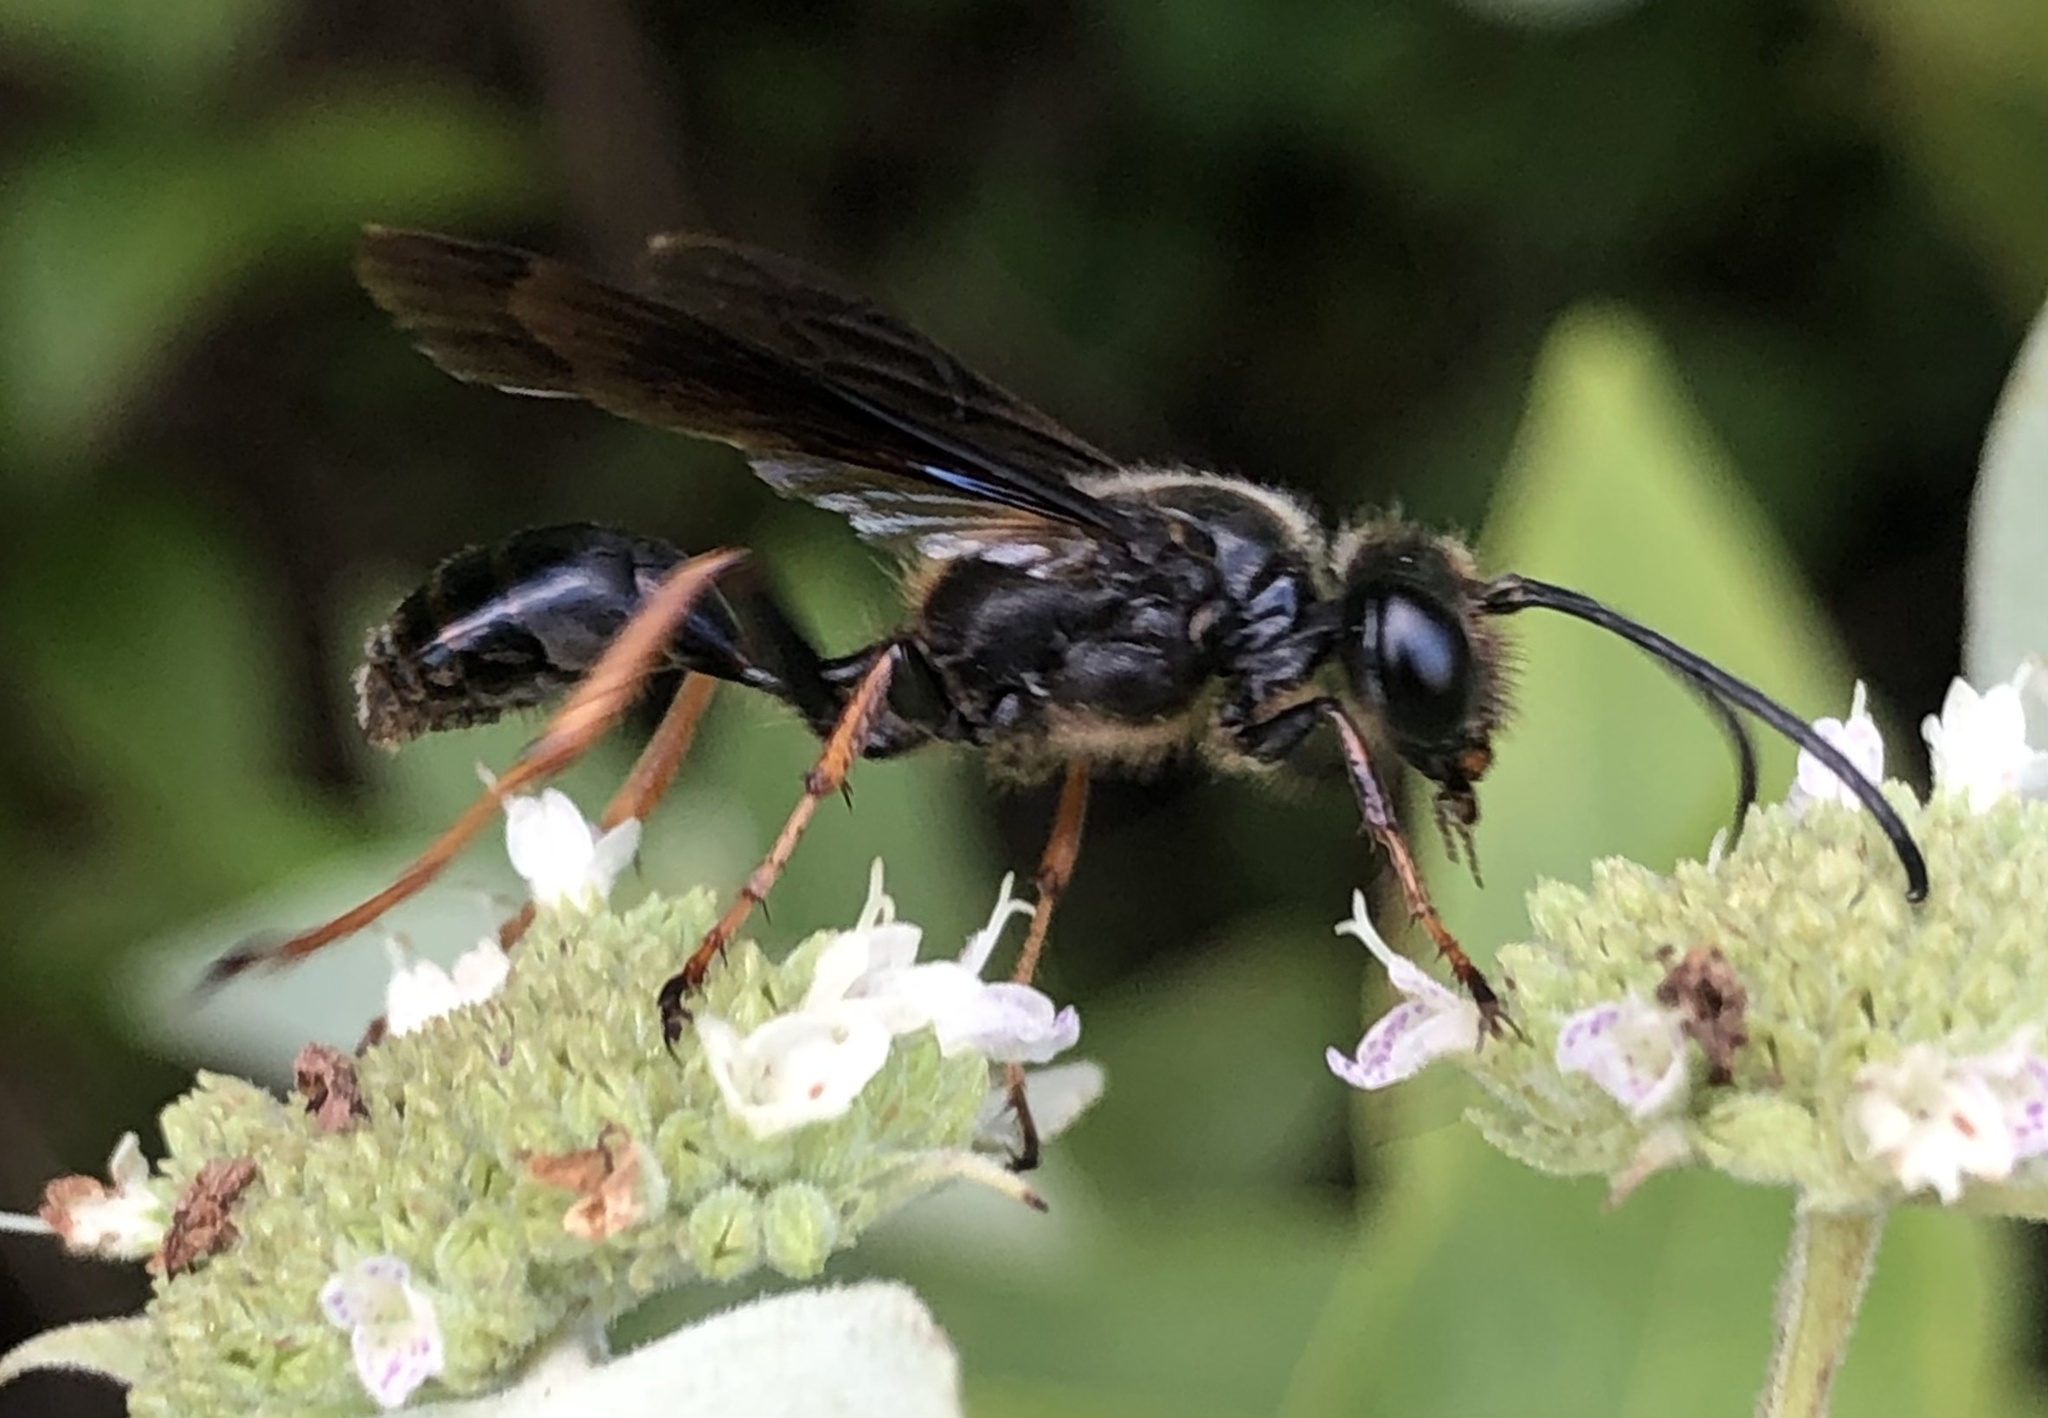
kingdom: Animalia
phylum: Arthropoda
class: Insecta
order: Hymenoptera
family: Sphecidae
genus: Isodontia
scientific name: Isodontia auripes
